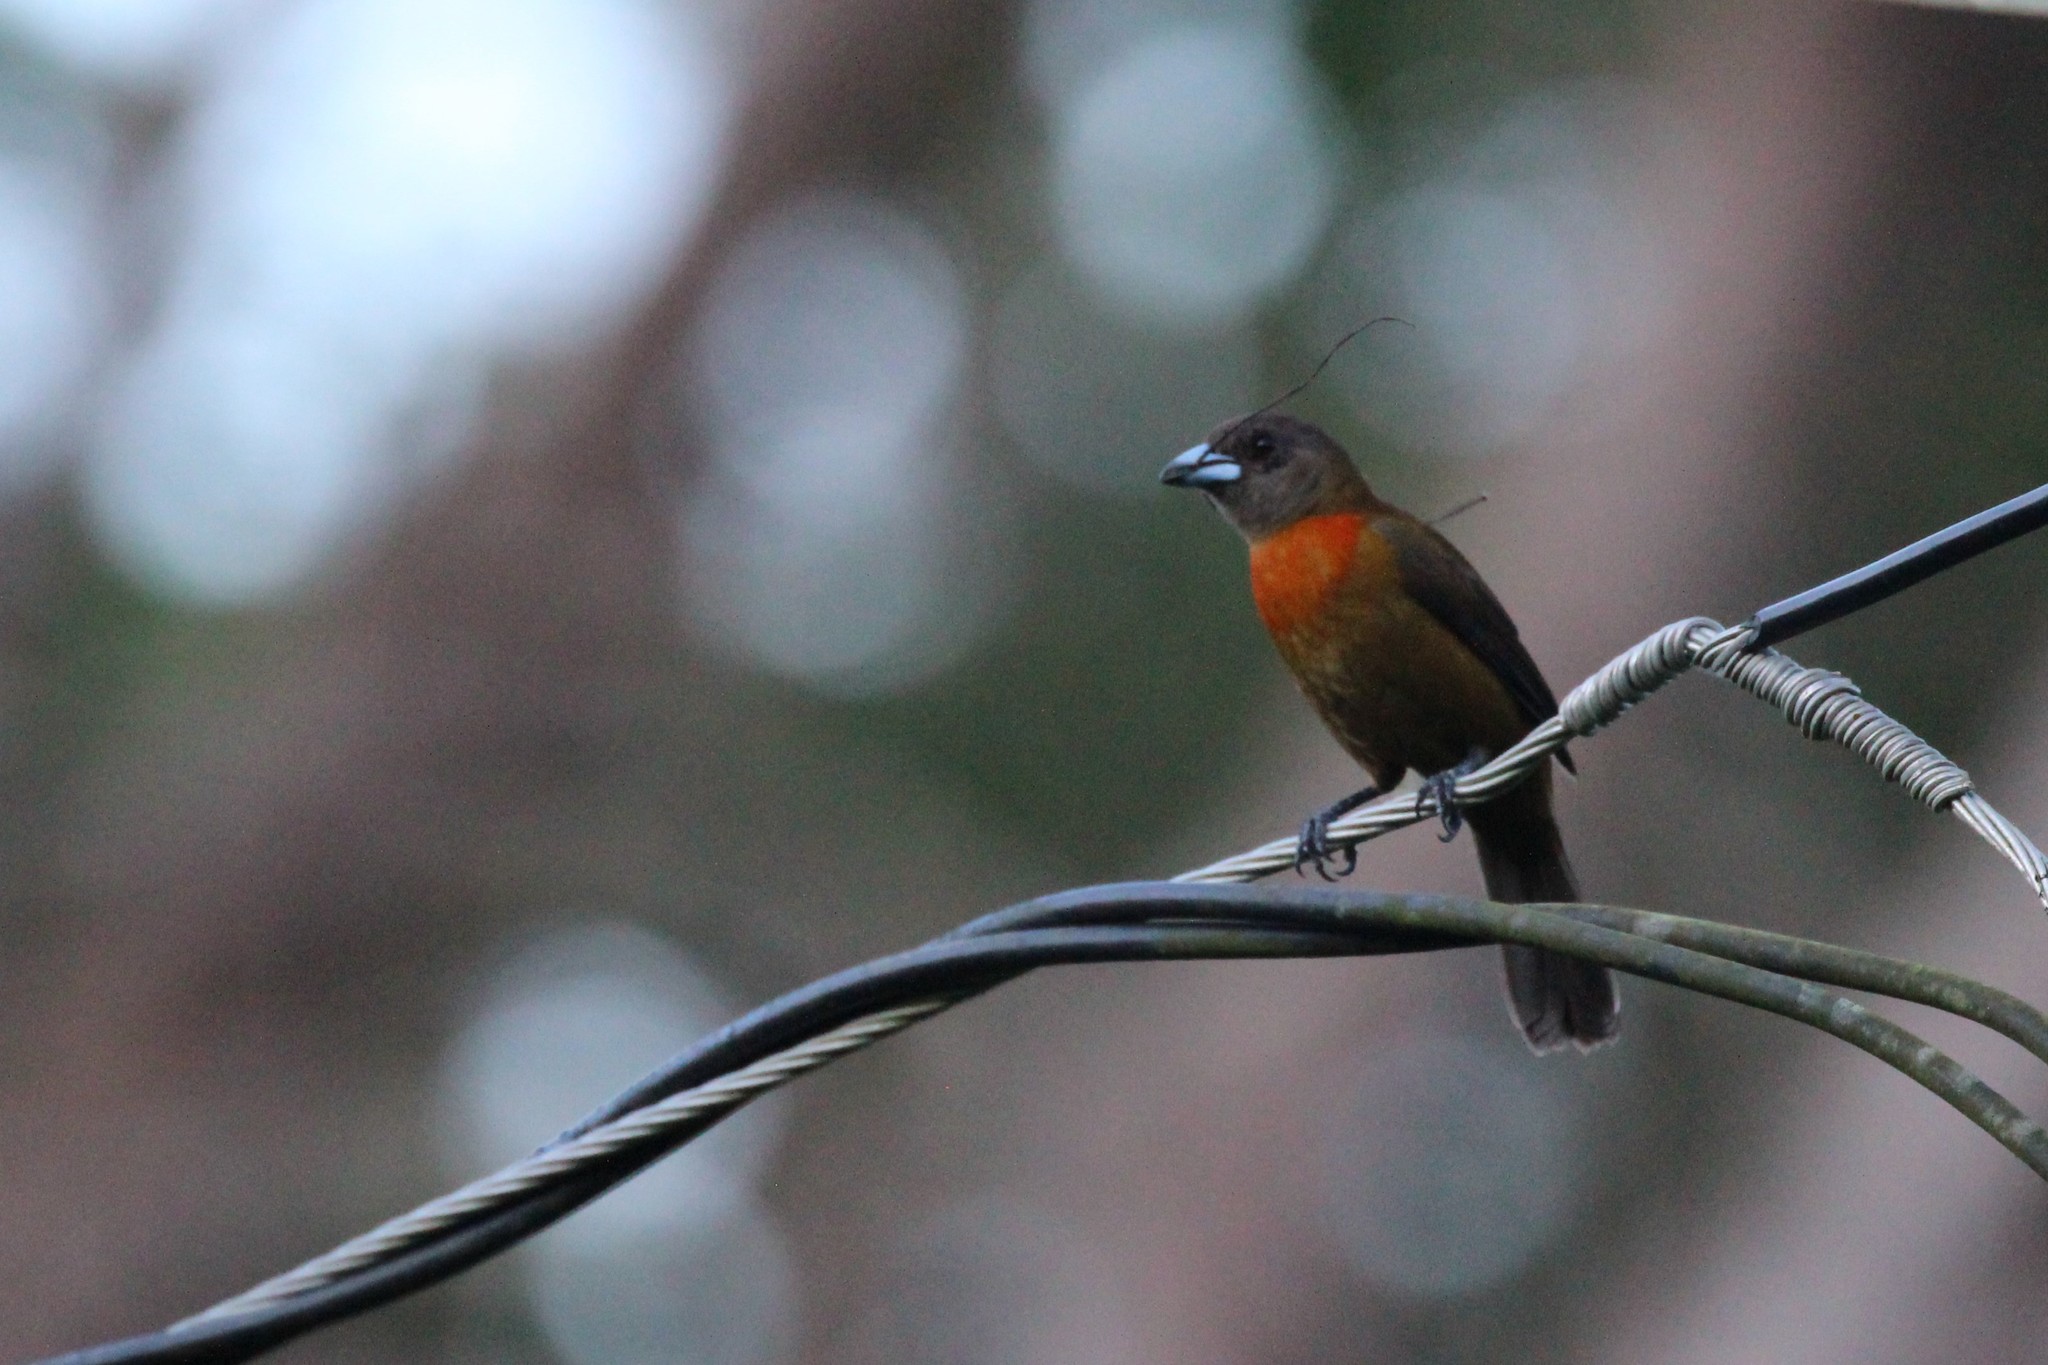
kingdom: Animalia
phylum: Chordata
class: Aves
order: Passeriformes
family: Thraupidae
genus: Ramphocelus
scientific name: Ramphocelus passerinii
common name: Passerini's tanager
